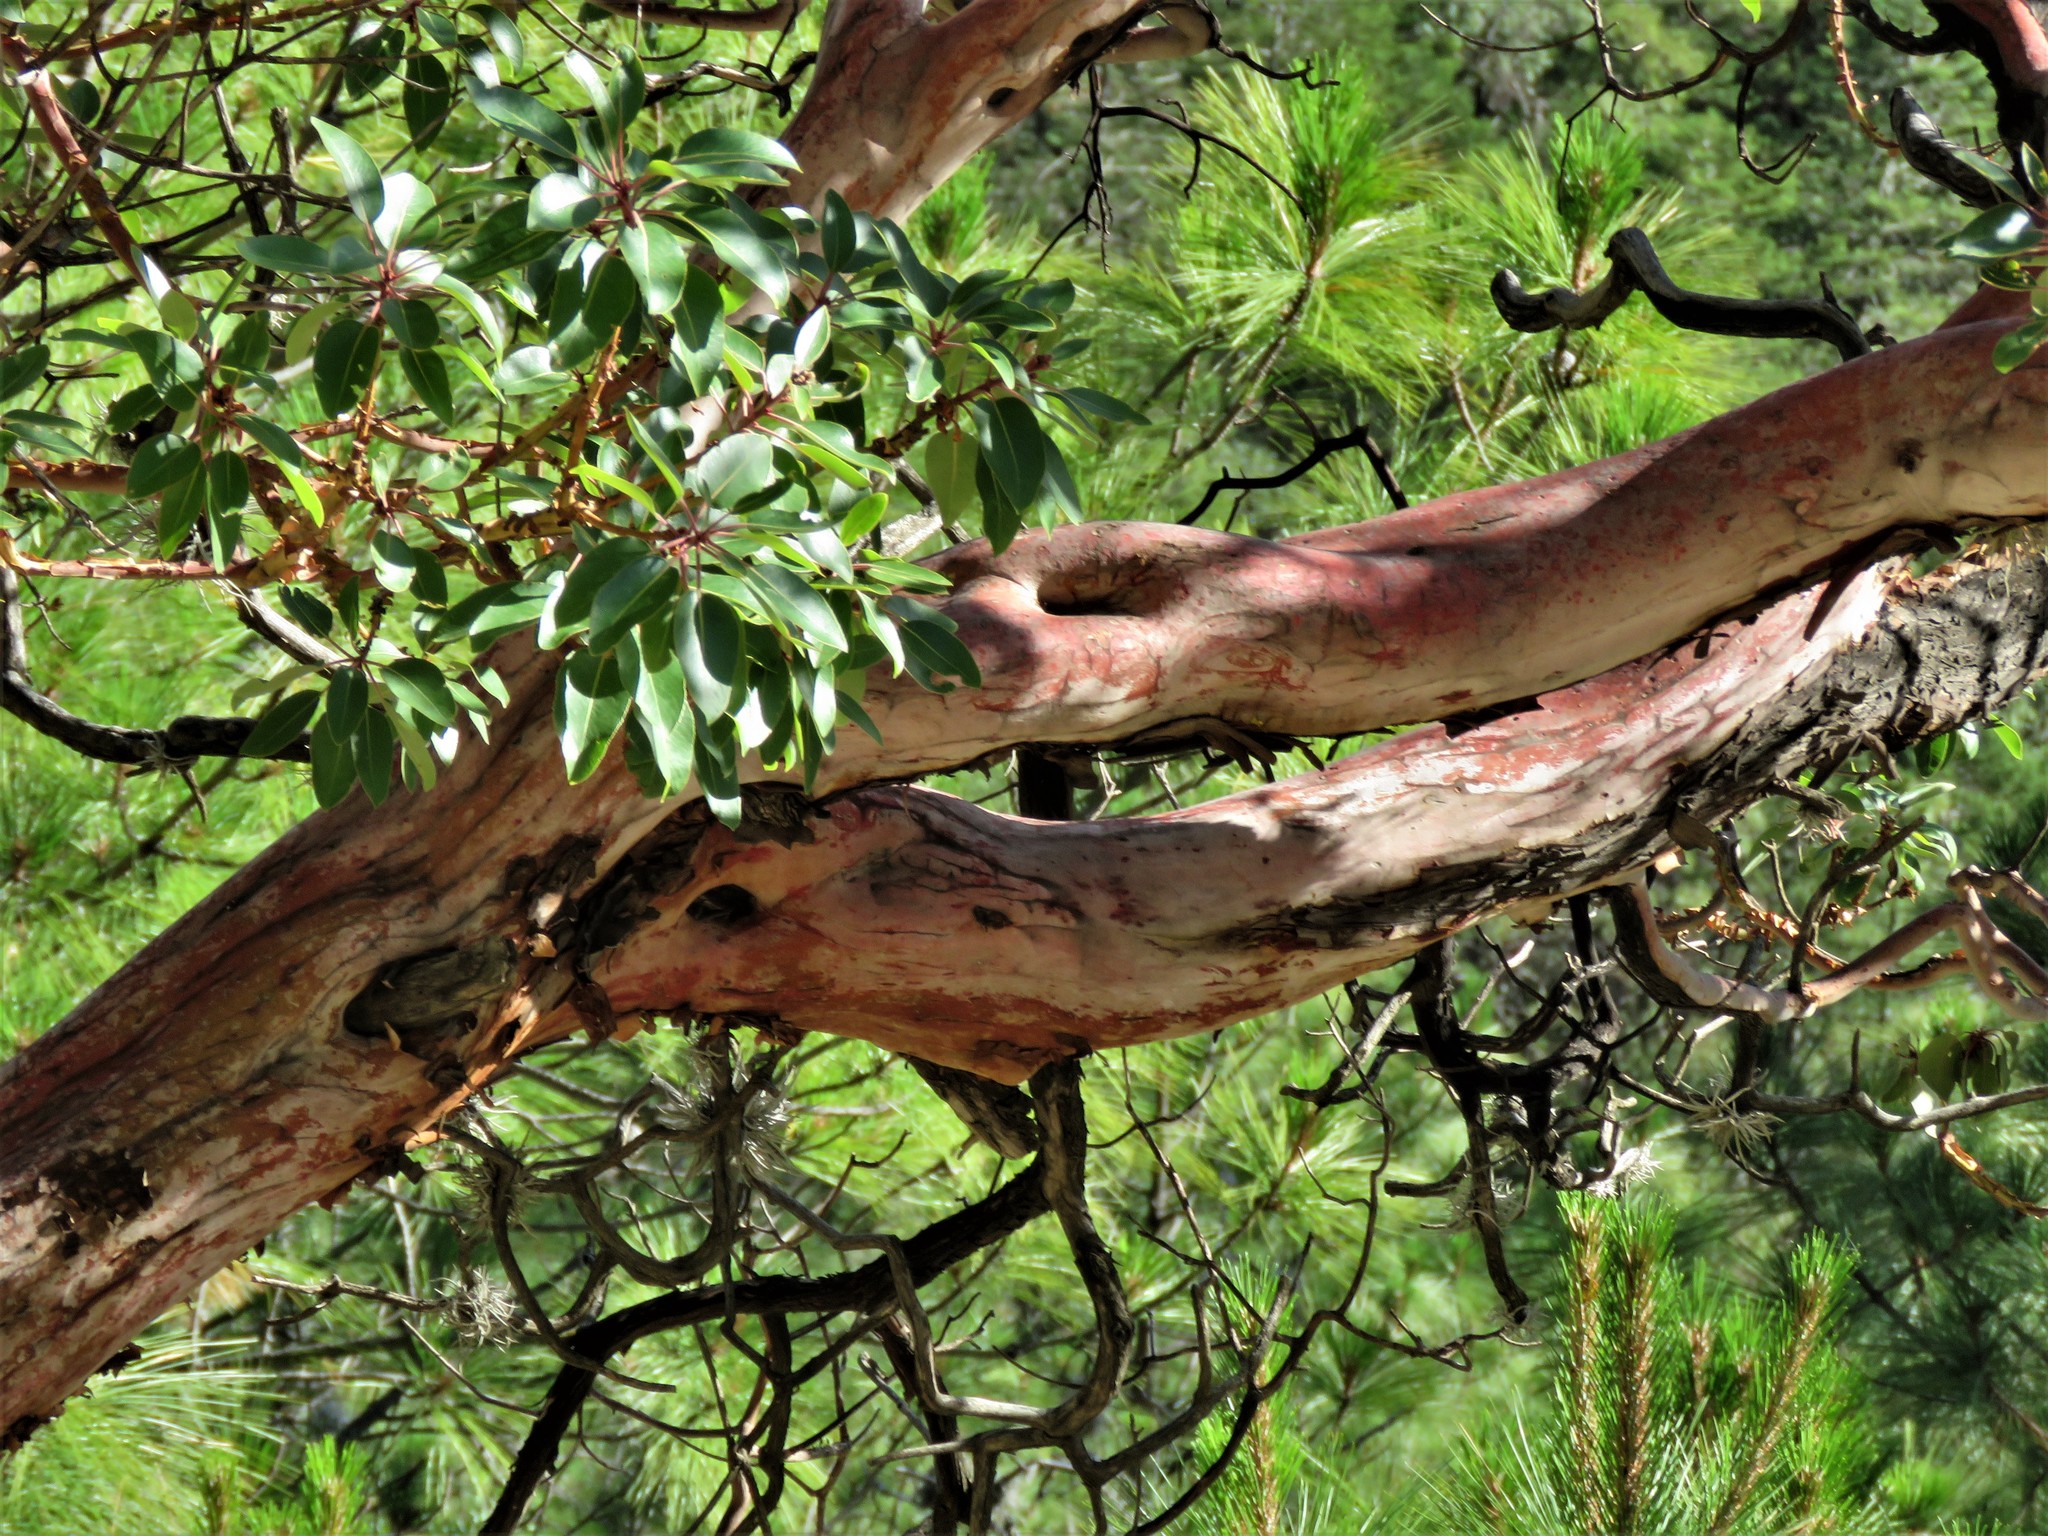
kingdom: Plantae
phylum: Tracheophyta
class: Magnoliopsida
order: Ericales
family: Ericaceae
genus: Arbutus
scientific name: Arbutus xalapensis
